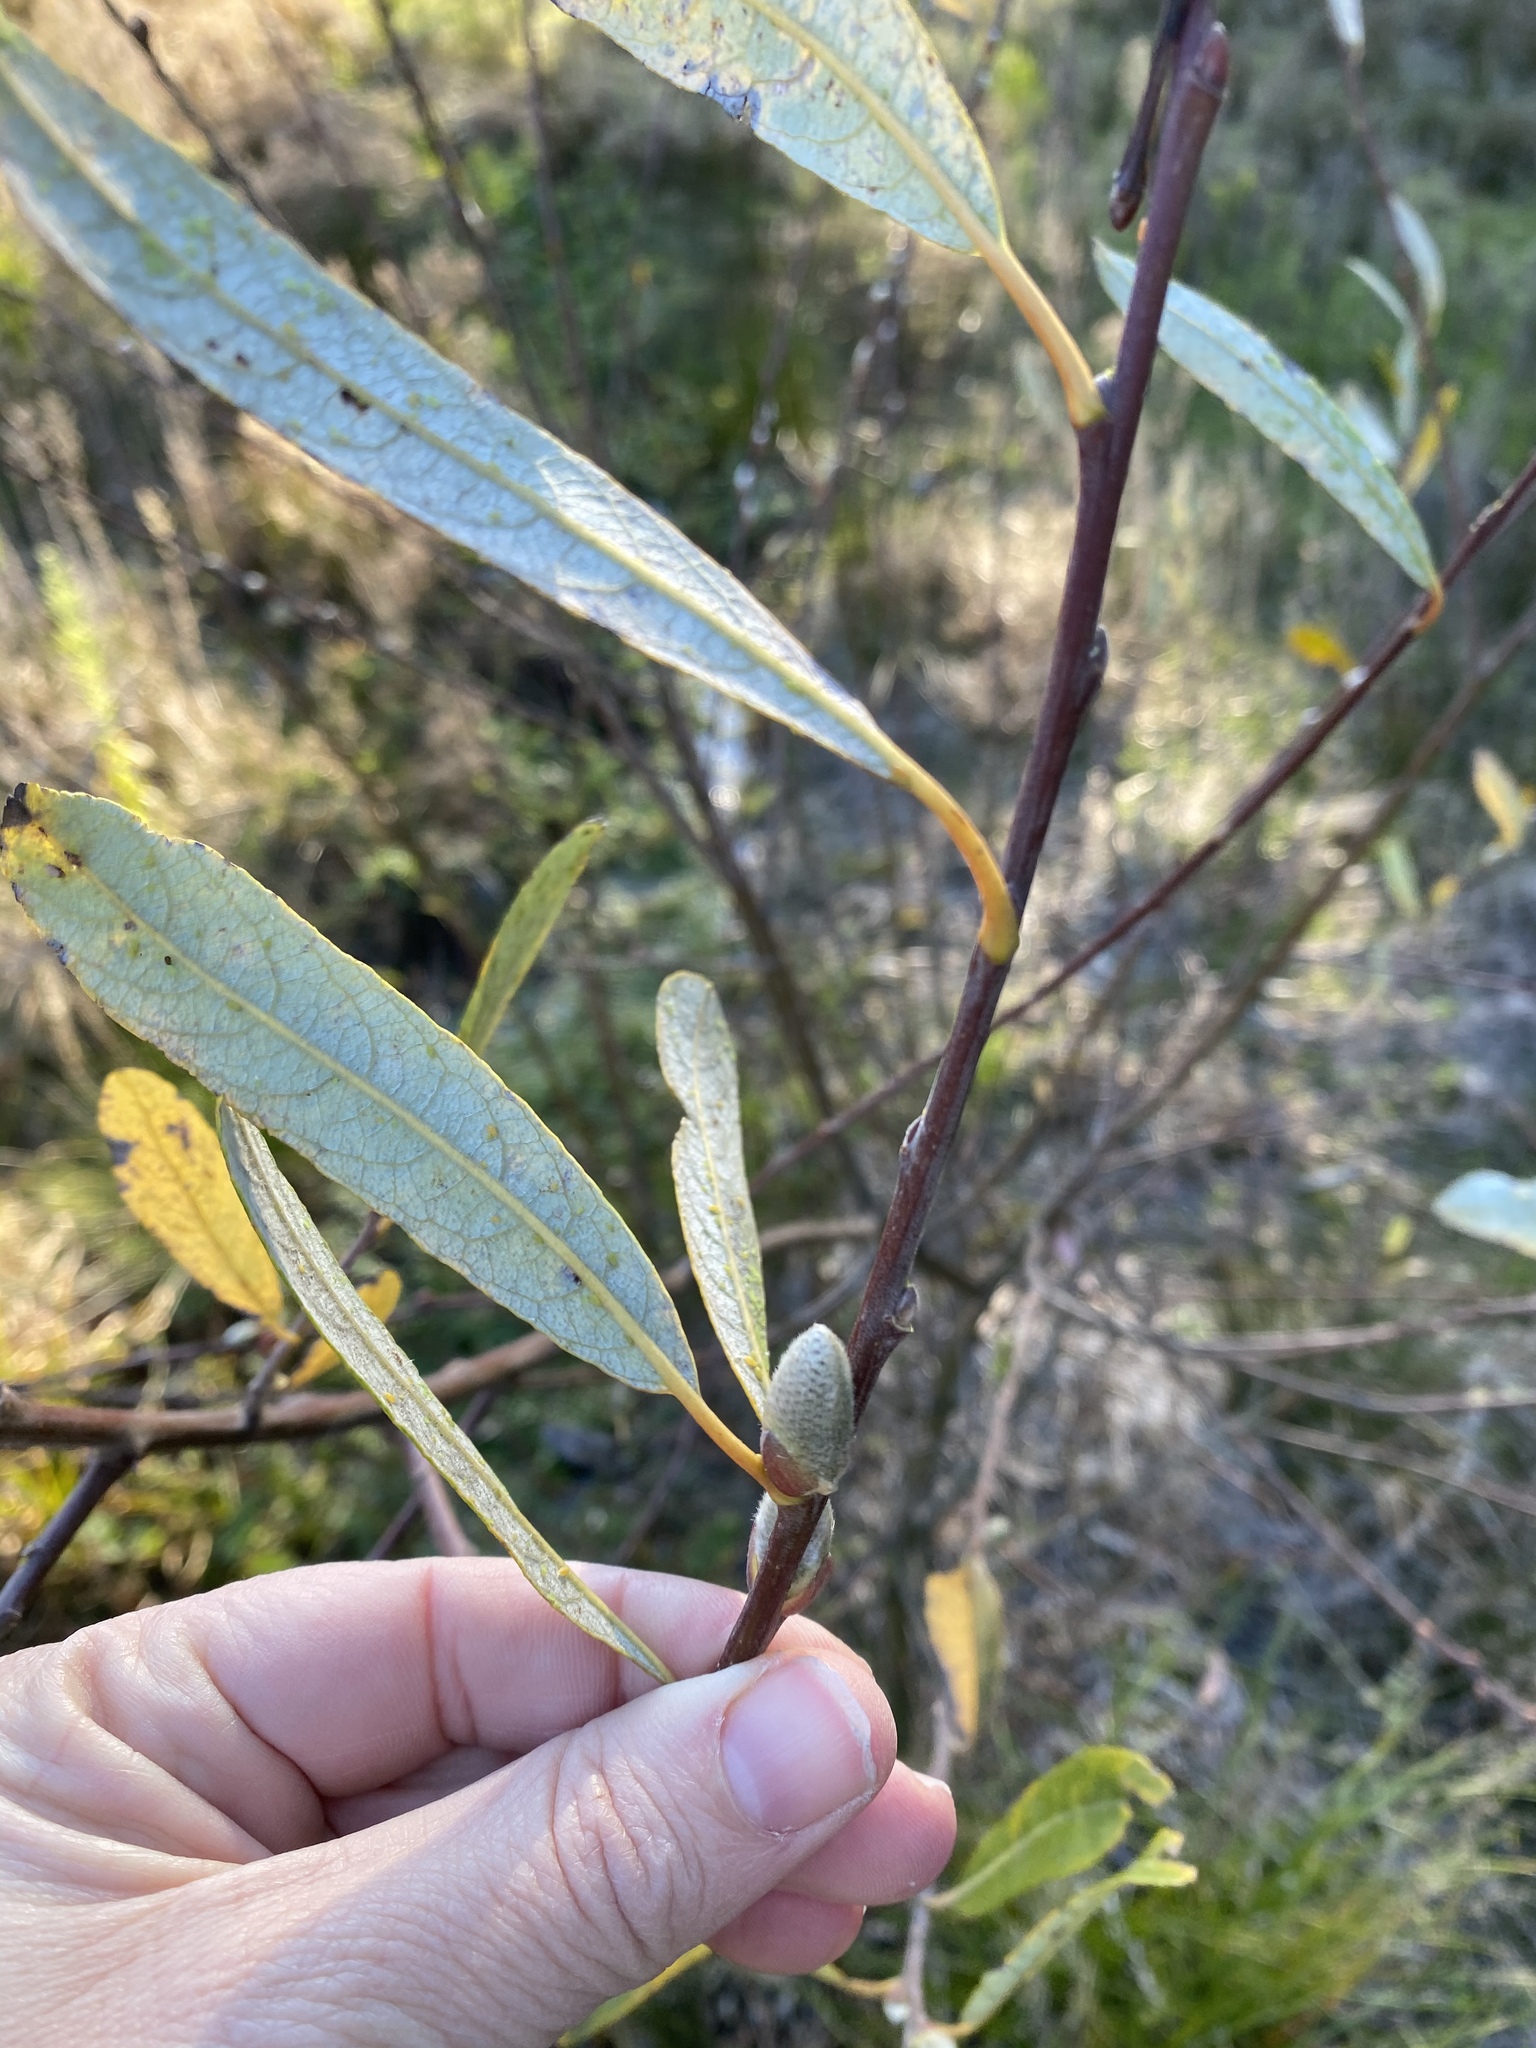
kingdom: Plantae
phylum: Tracheophyta
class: Magnoliopsida
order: Malpighiales
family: Salicaceae
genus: Salix
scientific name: Salix lasiolepis
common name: Arroyo willow
